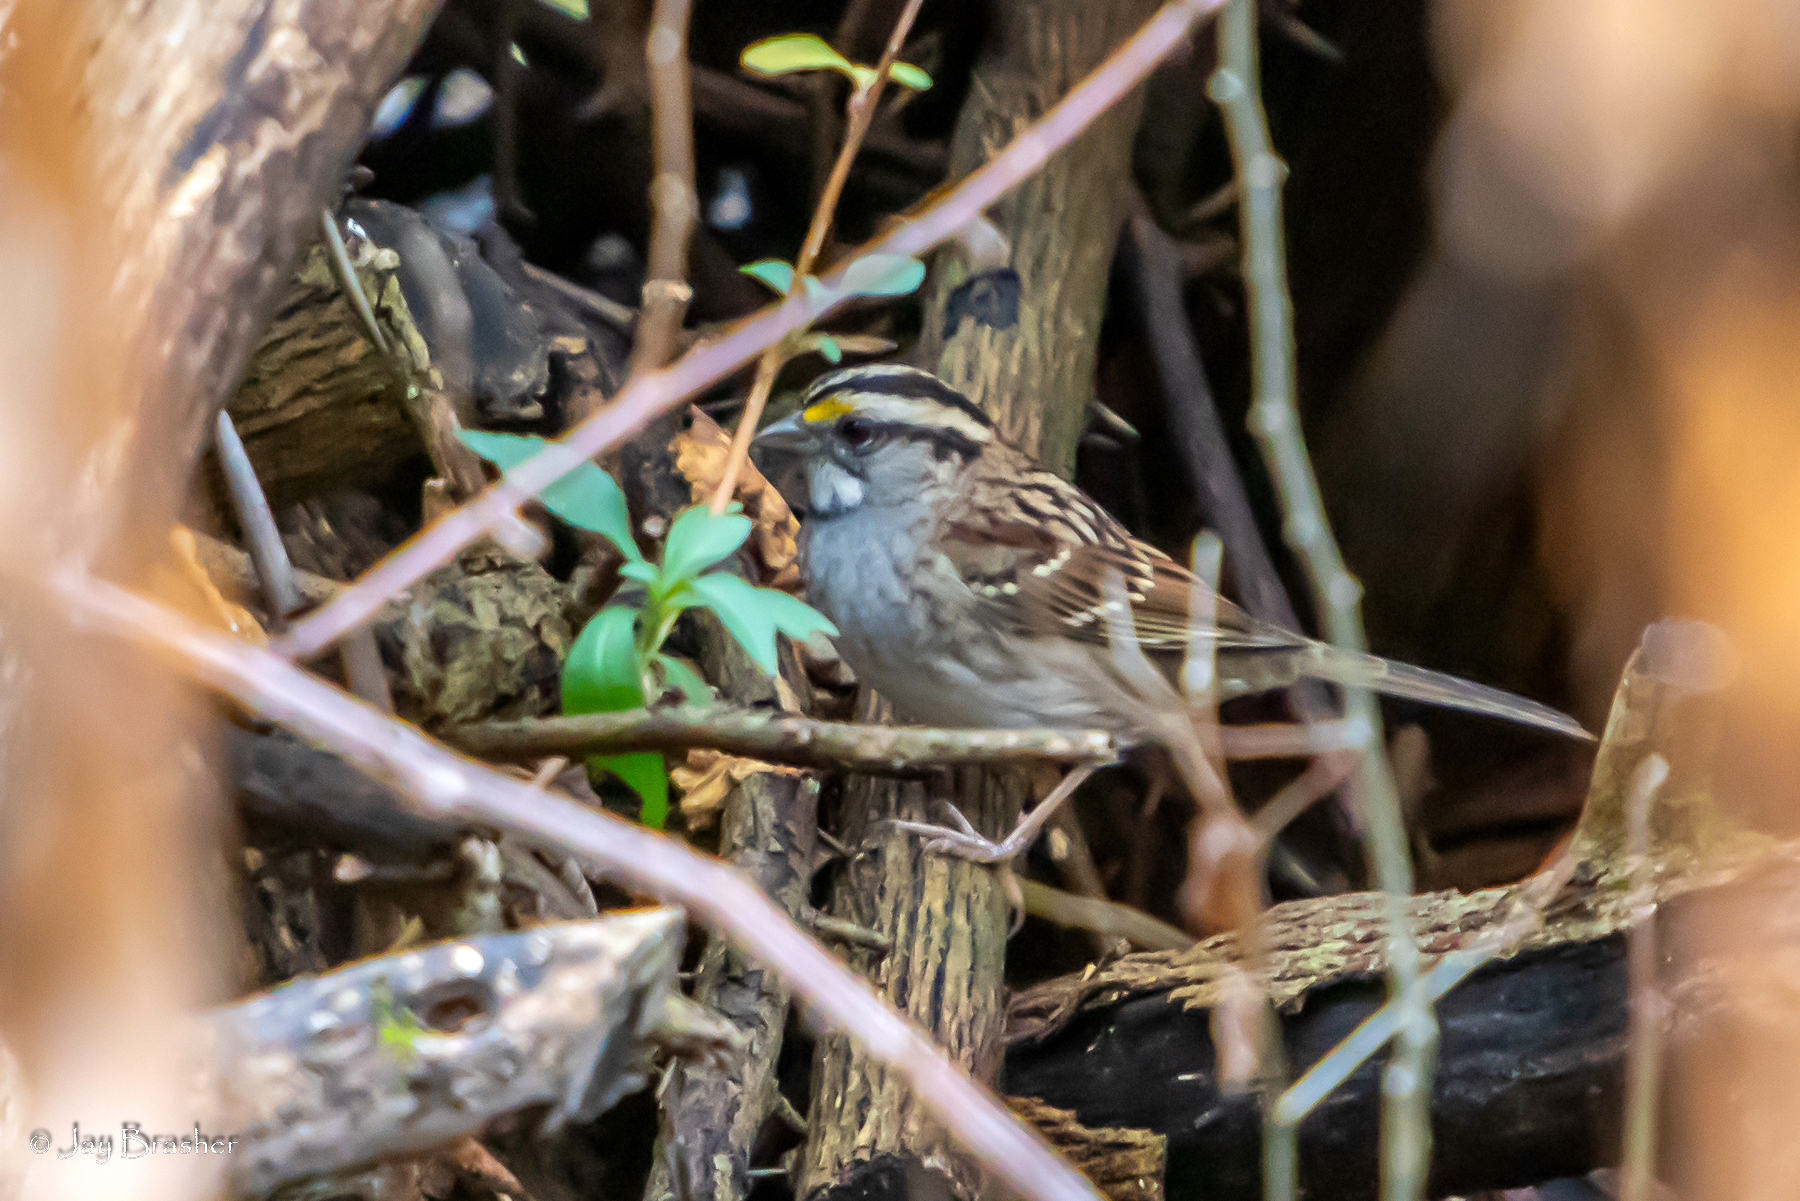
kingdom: Animalia
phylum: Chordata
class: Aves
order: Passeriformes
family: Passerellidae
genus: Zonotrichia
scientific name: Zonotrichia albicollis
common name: White-throated sparrow
